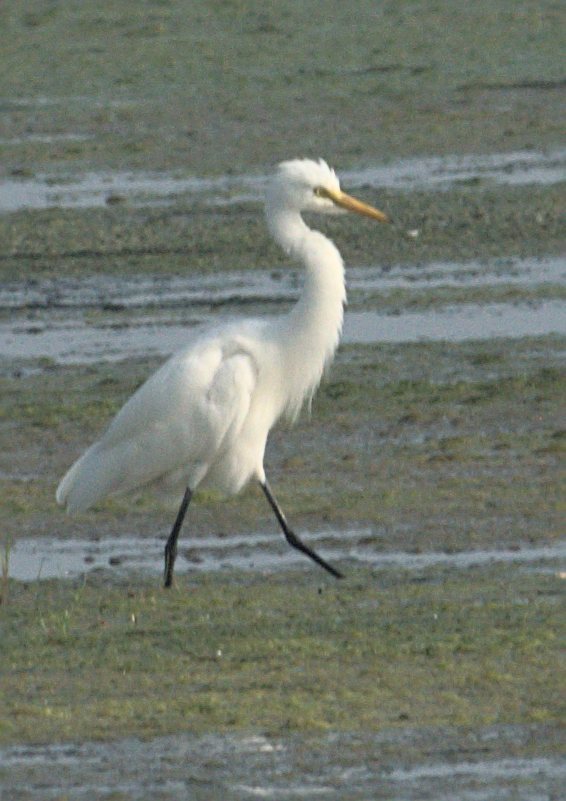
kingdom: Animalia
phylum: Chordata
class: Aves
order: Pelecaniformes
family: Ardeidae
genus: Bubulcus
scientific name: Bubulcus coromandus
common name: Eastern cattle egret
